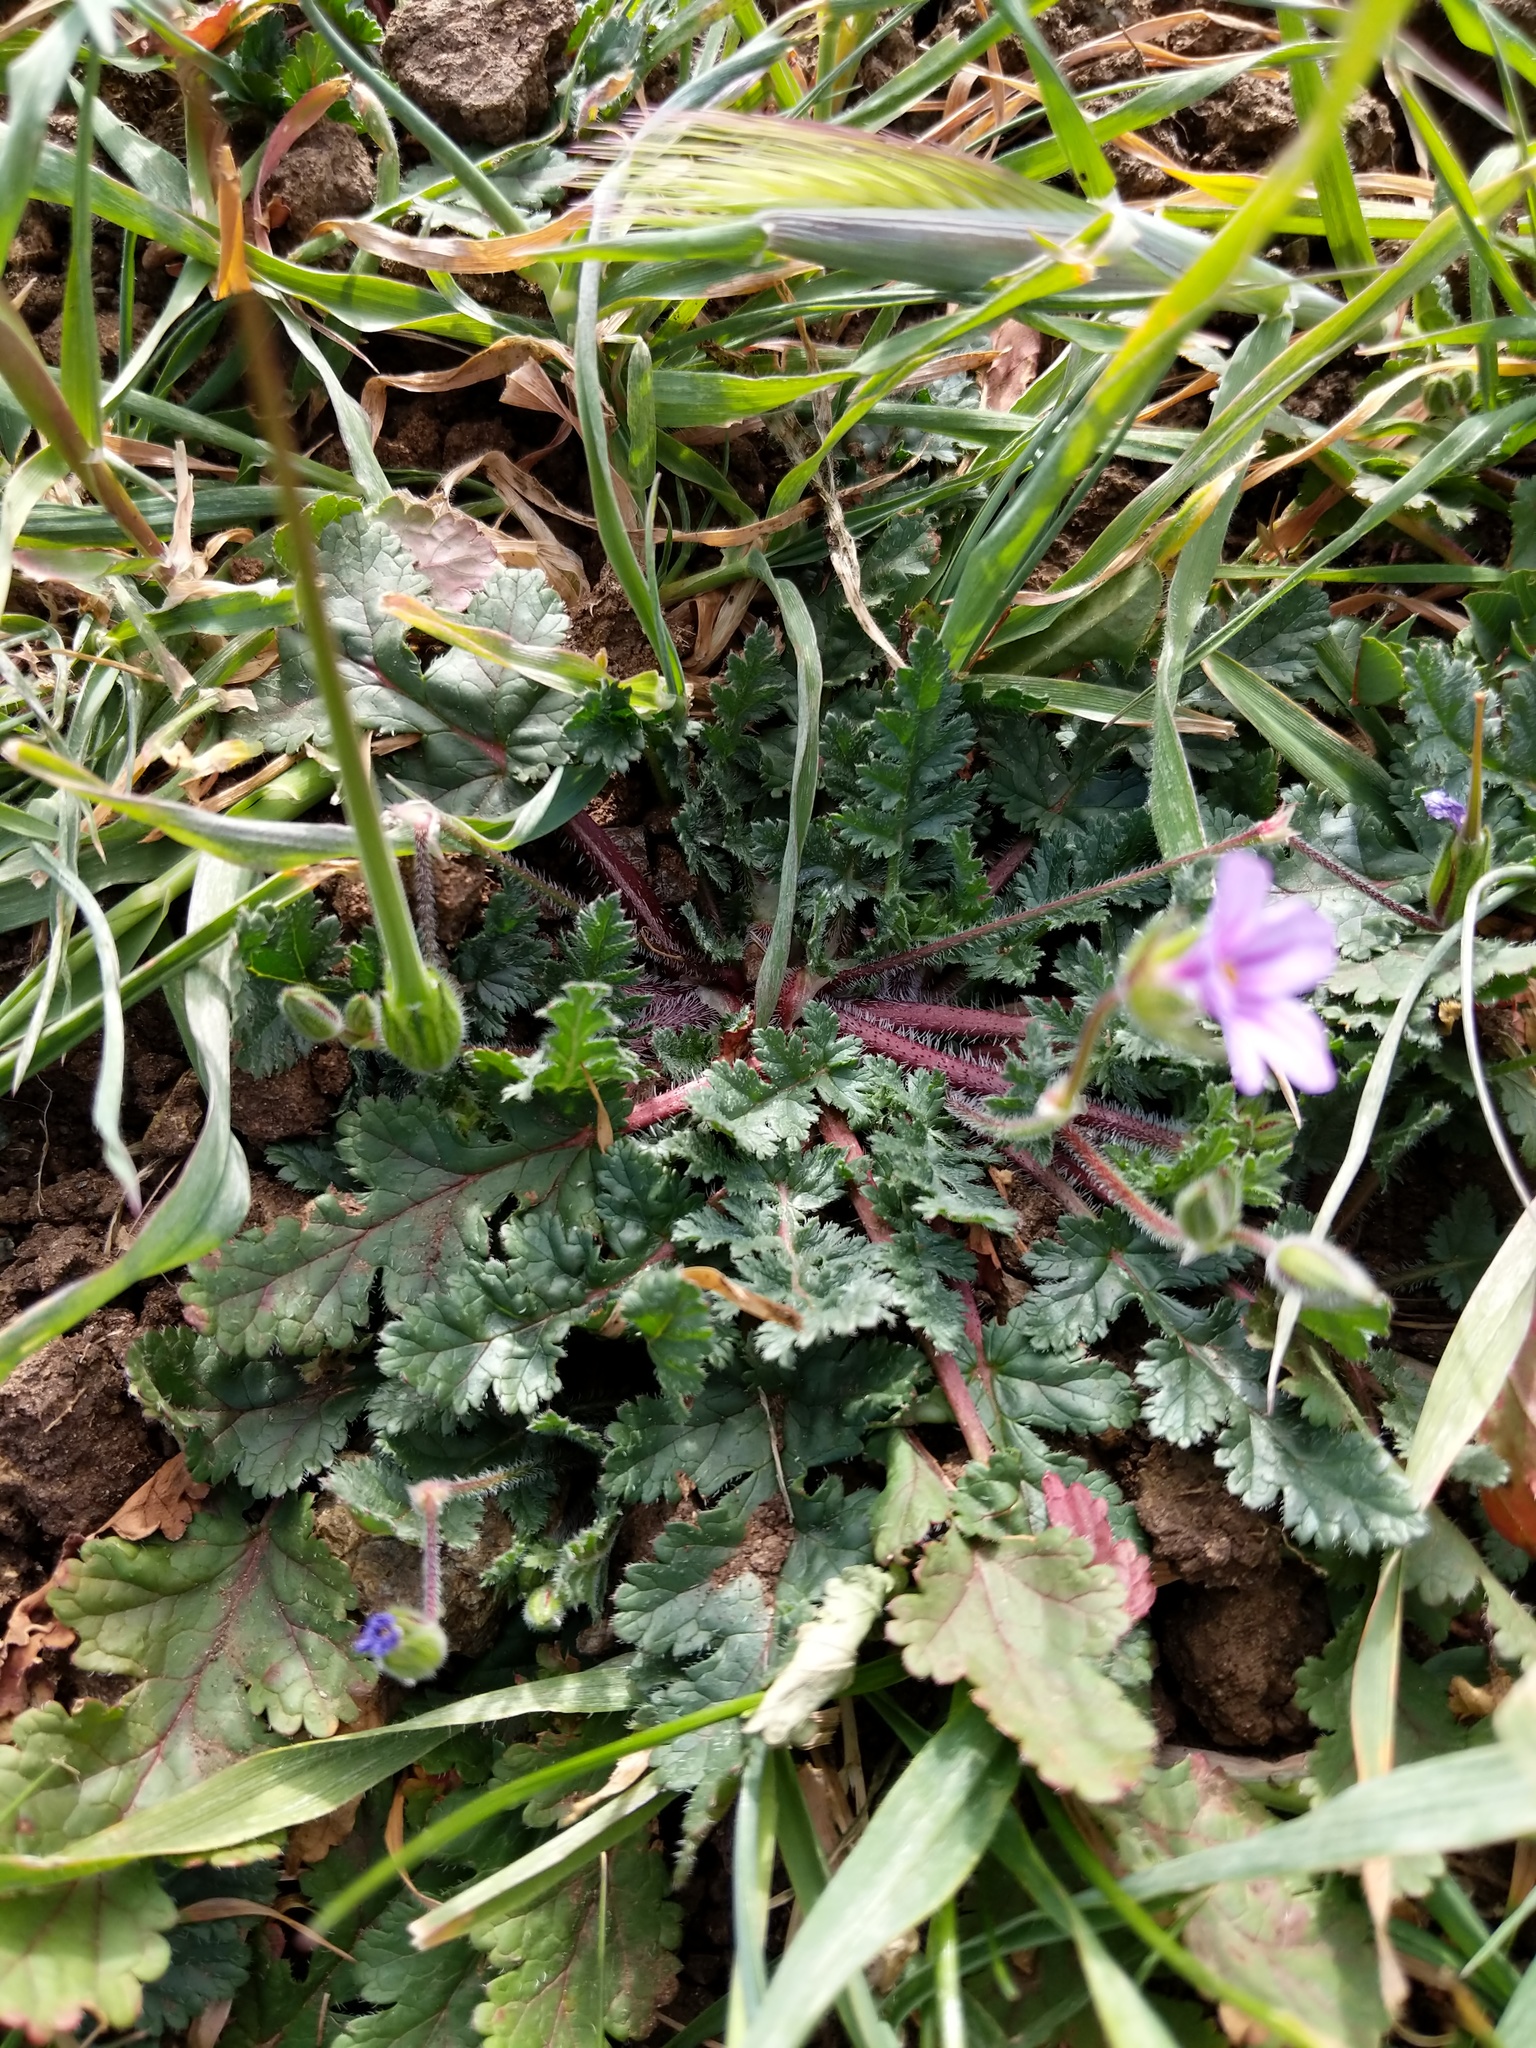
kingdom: Plantae
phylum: Tracheophyta
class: Magnoliopsida
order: Geraniales
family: Geraniaceae
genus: Erodium
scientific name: Erodium botrys
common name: Mediterranean stork's-bill
